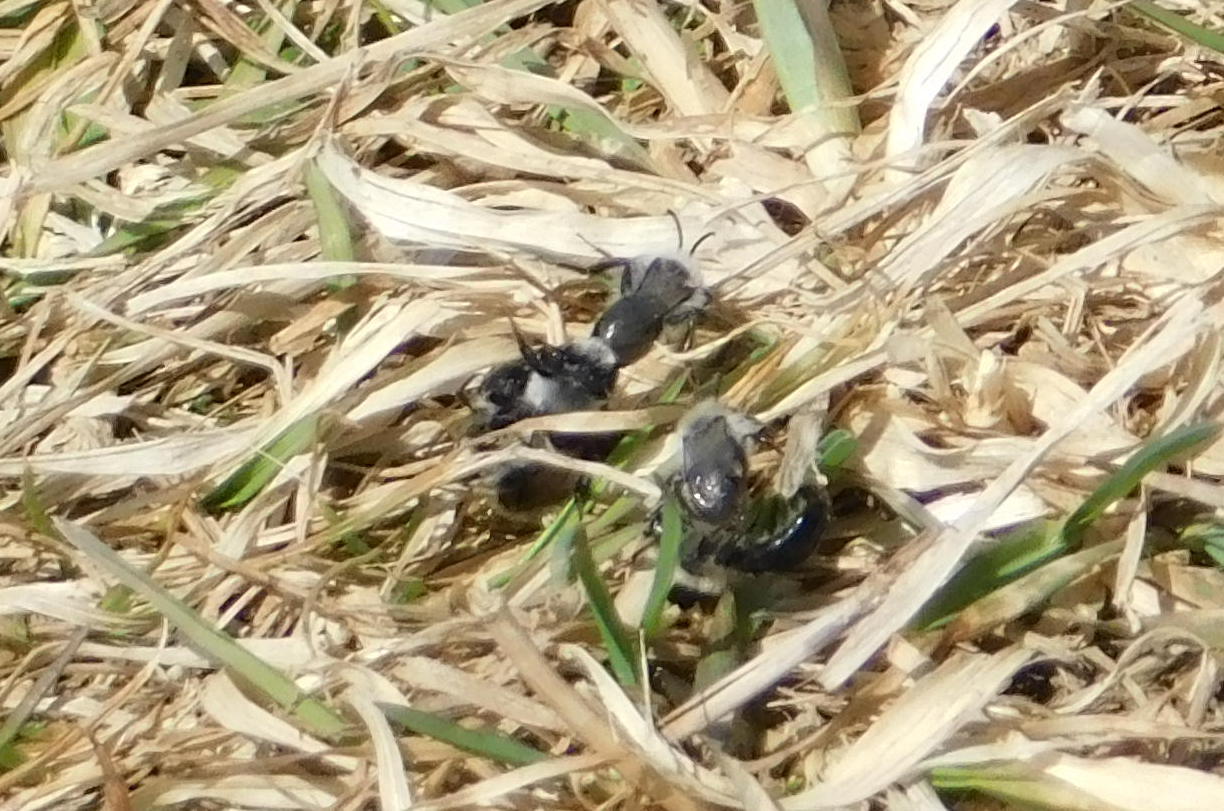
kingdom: Animalia
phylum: Arthropoda
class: Insecta
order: Hymenoptera
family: Andrenidae
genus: Andrena
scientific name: Andrena cineraria
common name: Ashy mining bee
